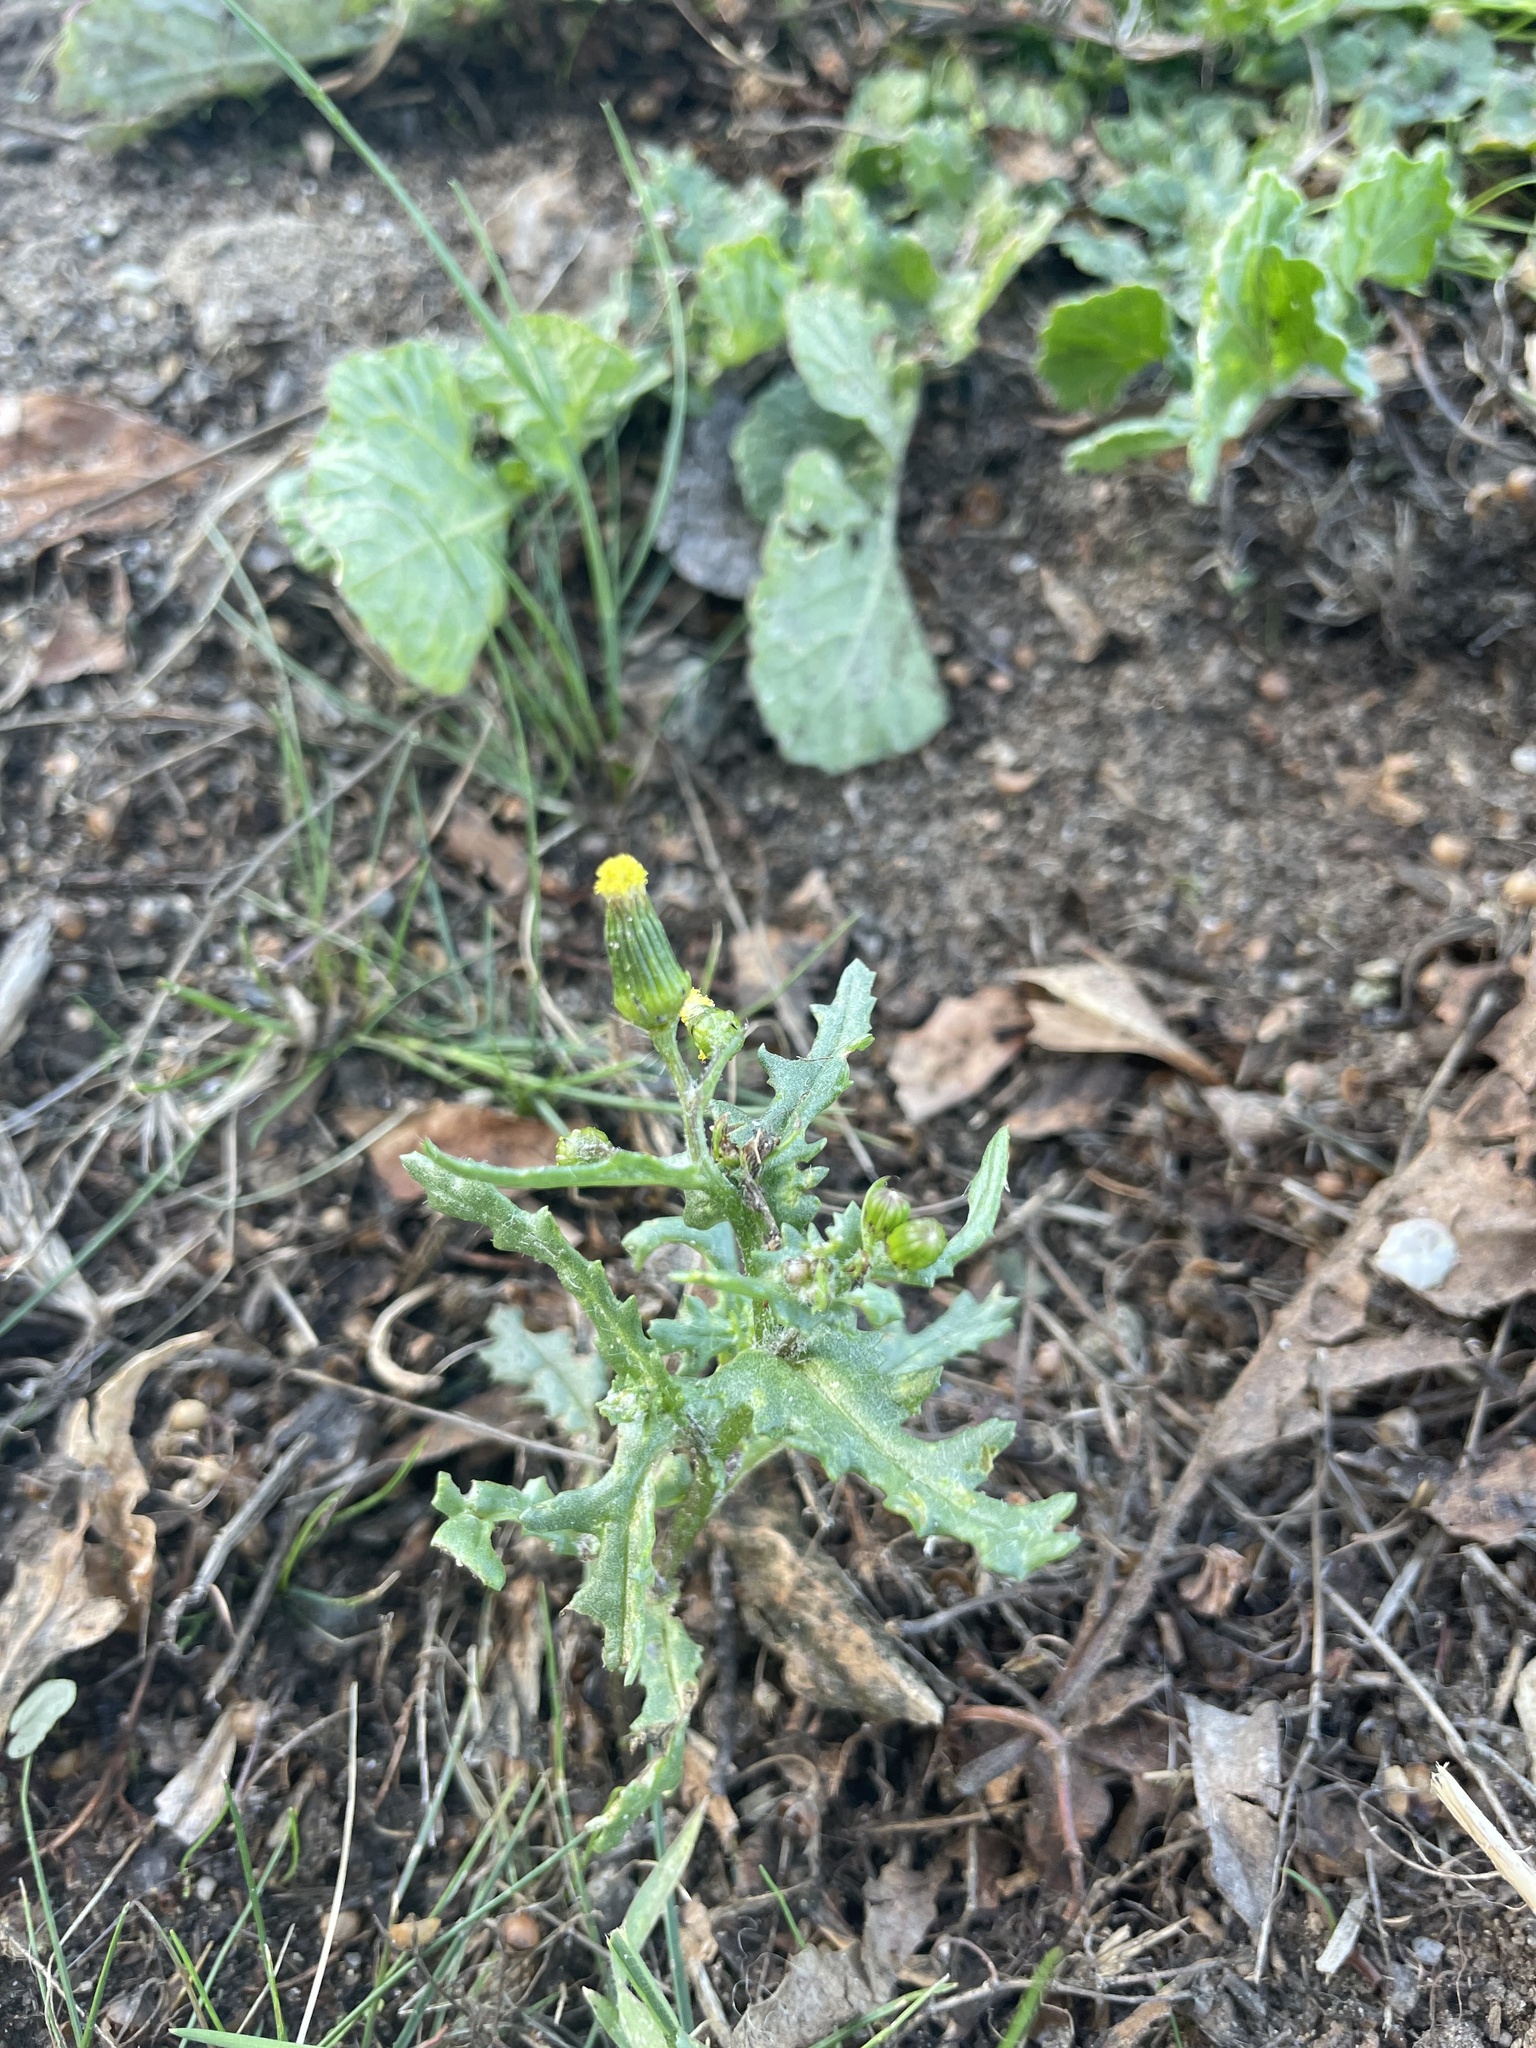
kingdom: Plantae
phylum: Tracheophyta
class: Magnoliopsida
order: Asterales
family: Asteraceae
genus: Senecio
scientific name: Senecio vulgaris
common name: Old-man-in-the-spring
